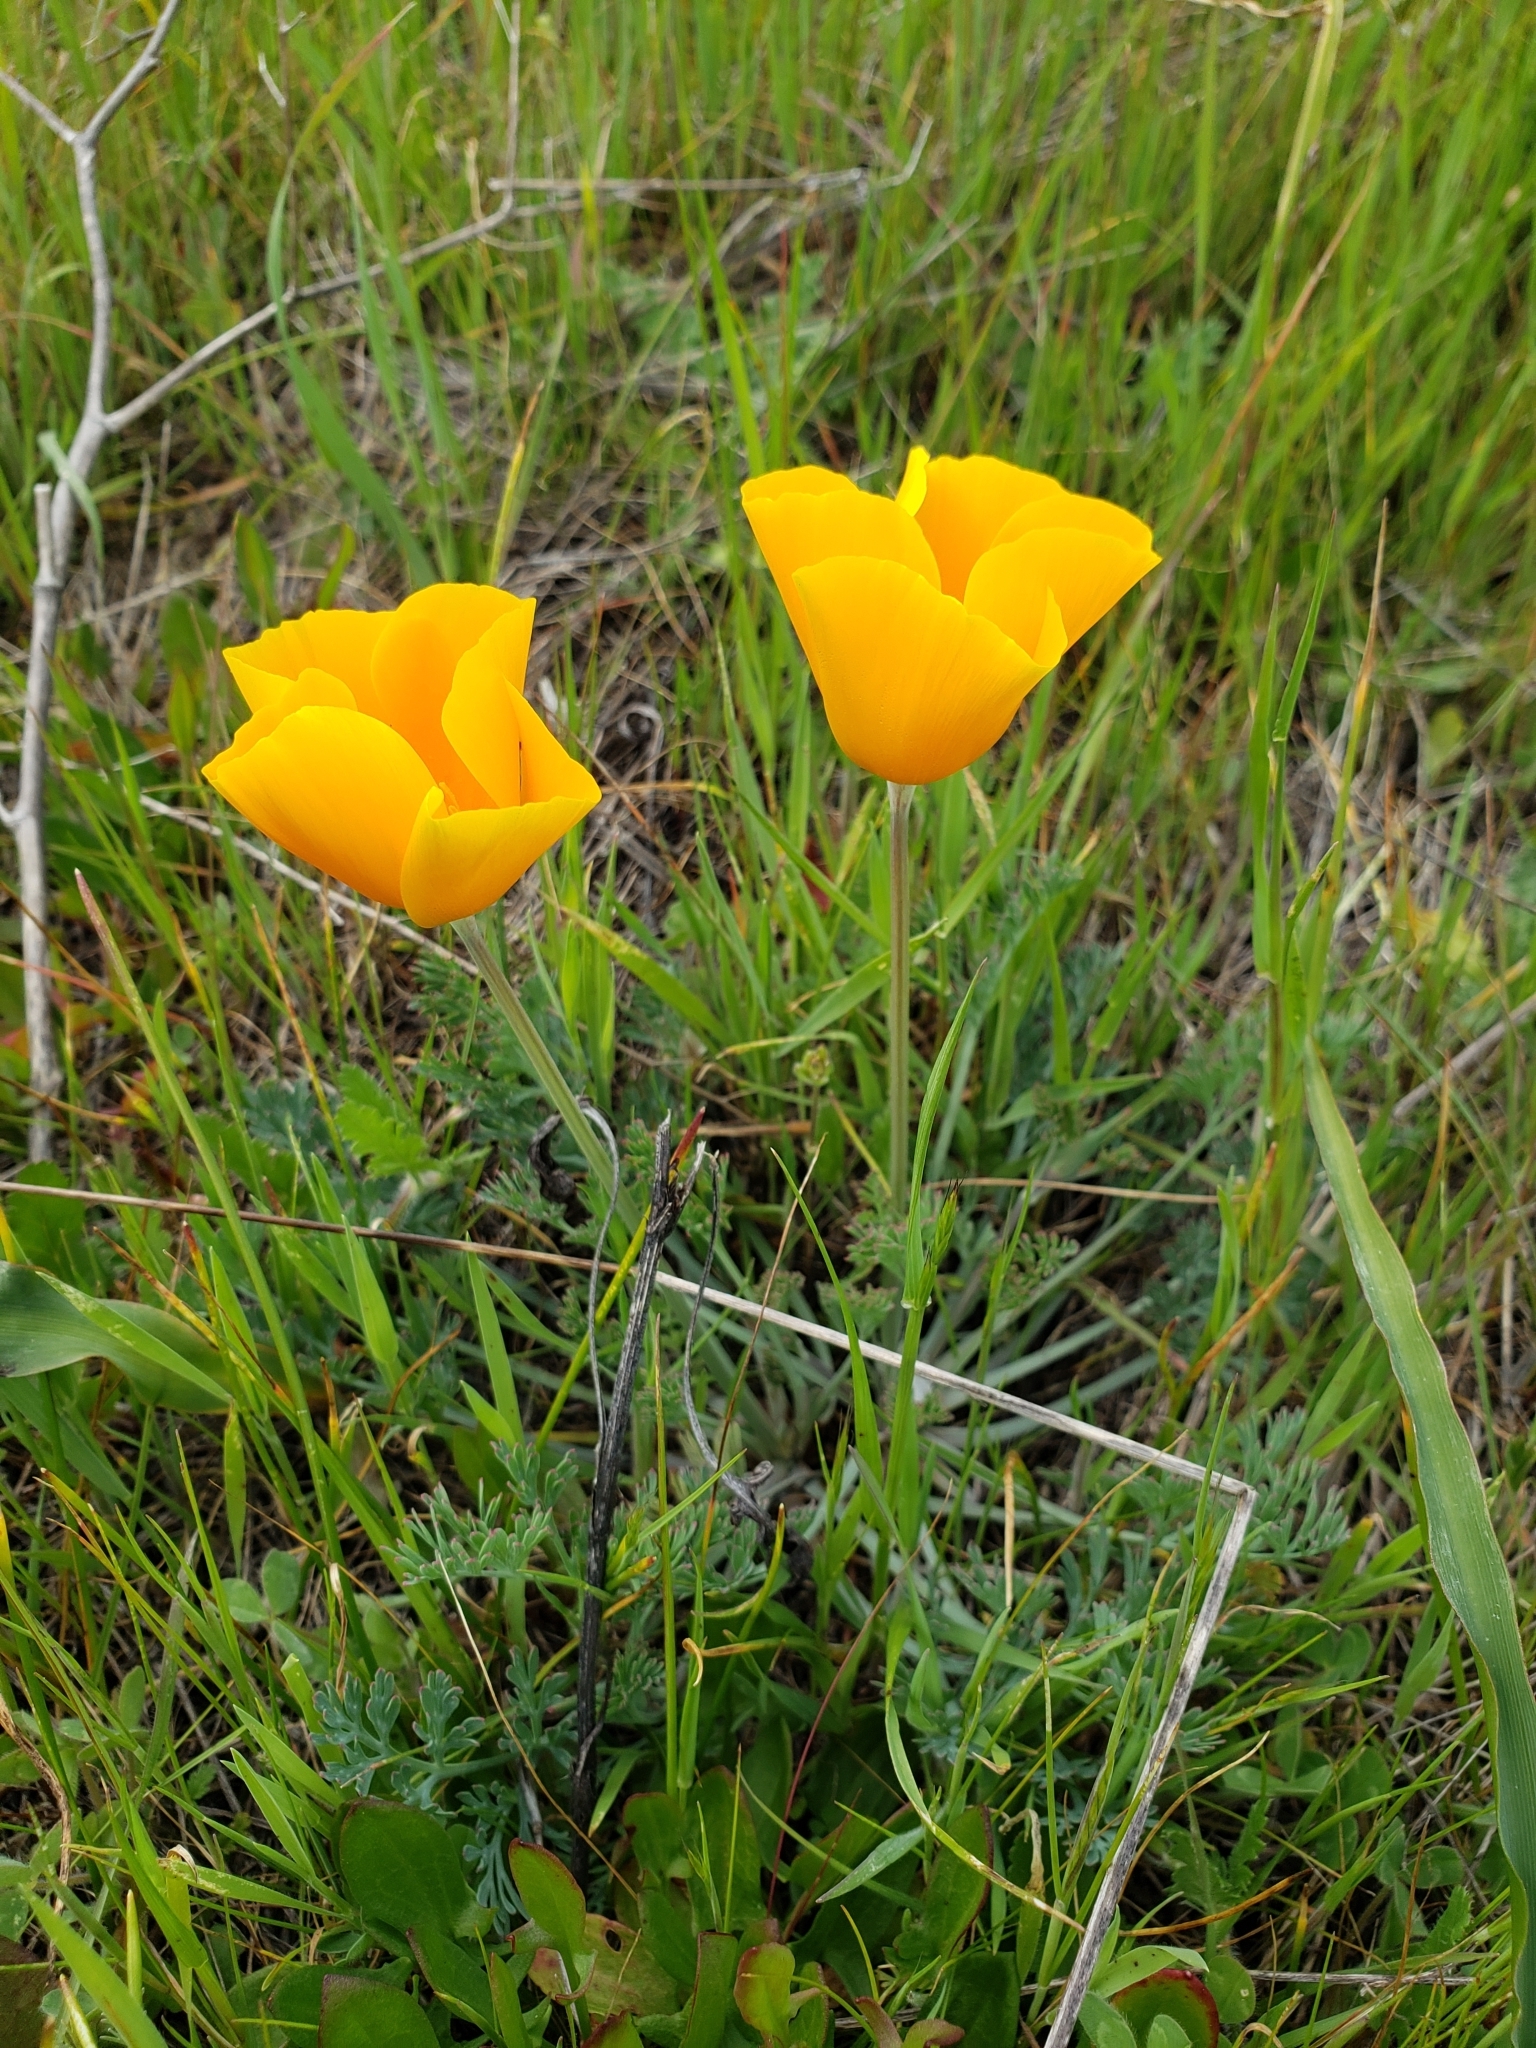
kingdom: Plantae
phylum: Tracheophyta
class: Magnoliopsida
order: Ranunculales
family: Papaveraceae
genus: Eschscholzia
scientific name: Eschscholzia californica
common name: California poppy
